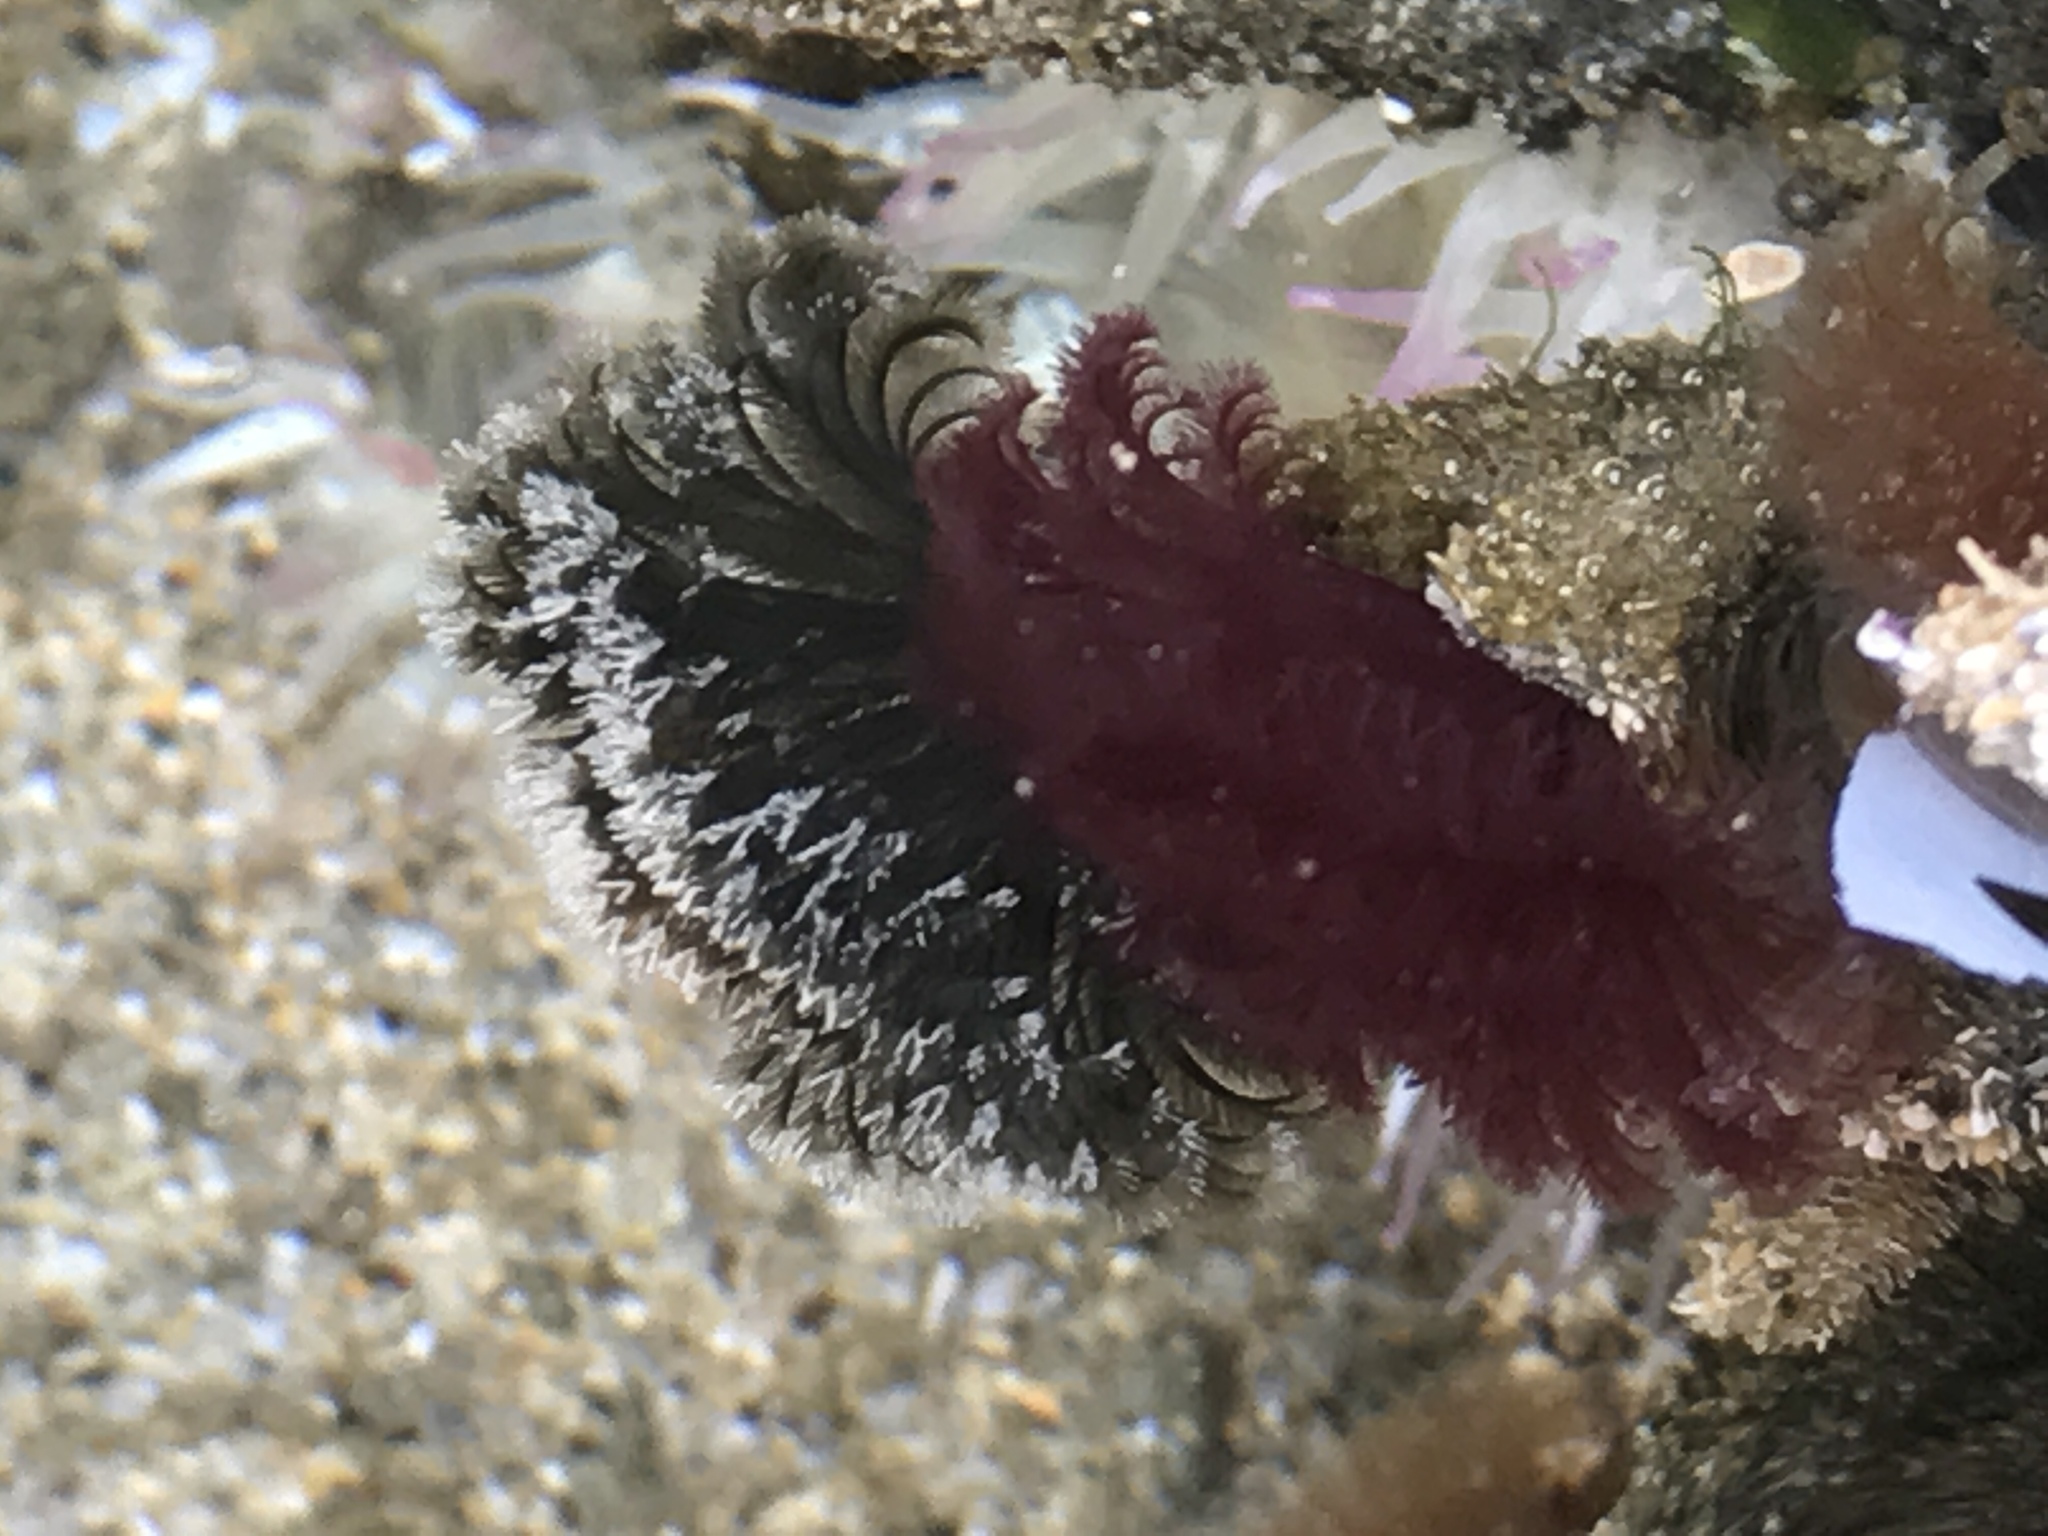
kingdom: Animalia
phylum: Annelida
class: Polychaeta
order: Sabellida
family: Sabellidae
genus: Schizobranchia
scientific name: Schizobranchia insignis
